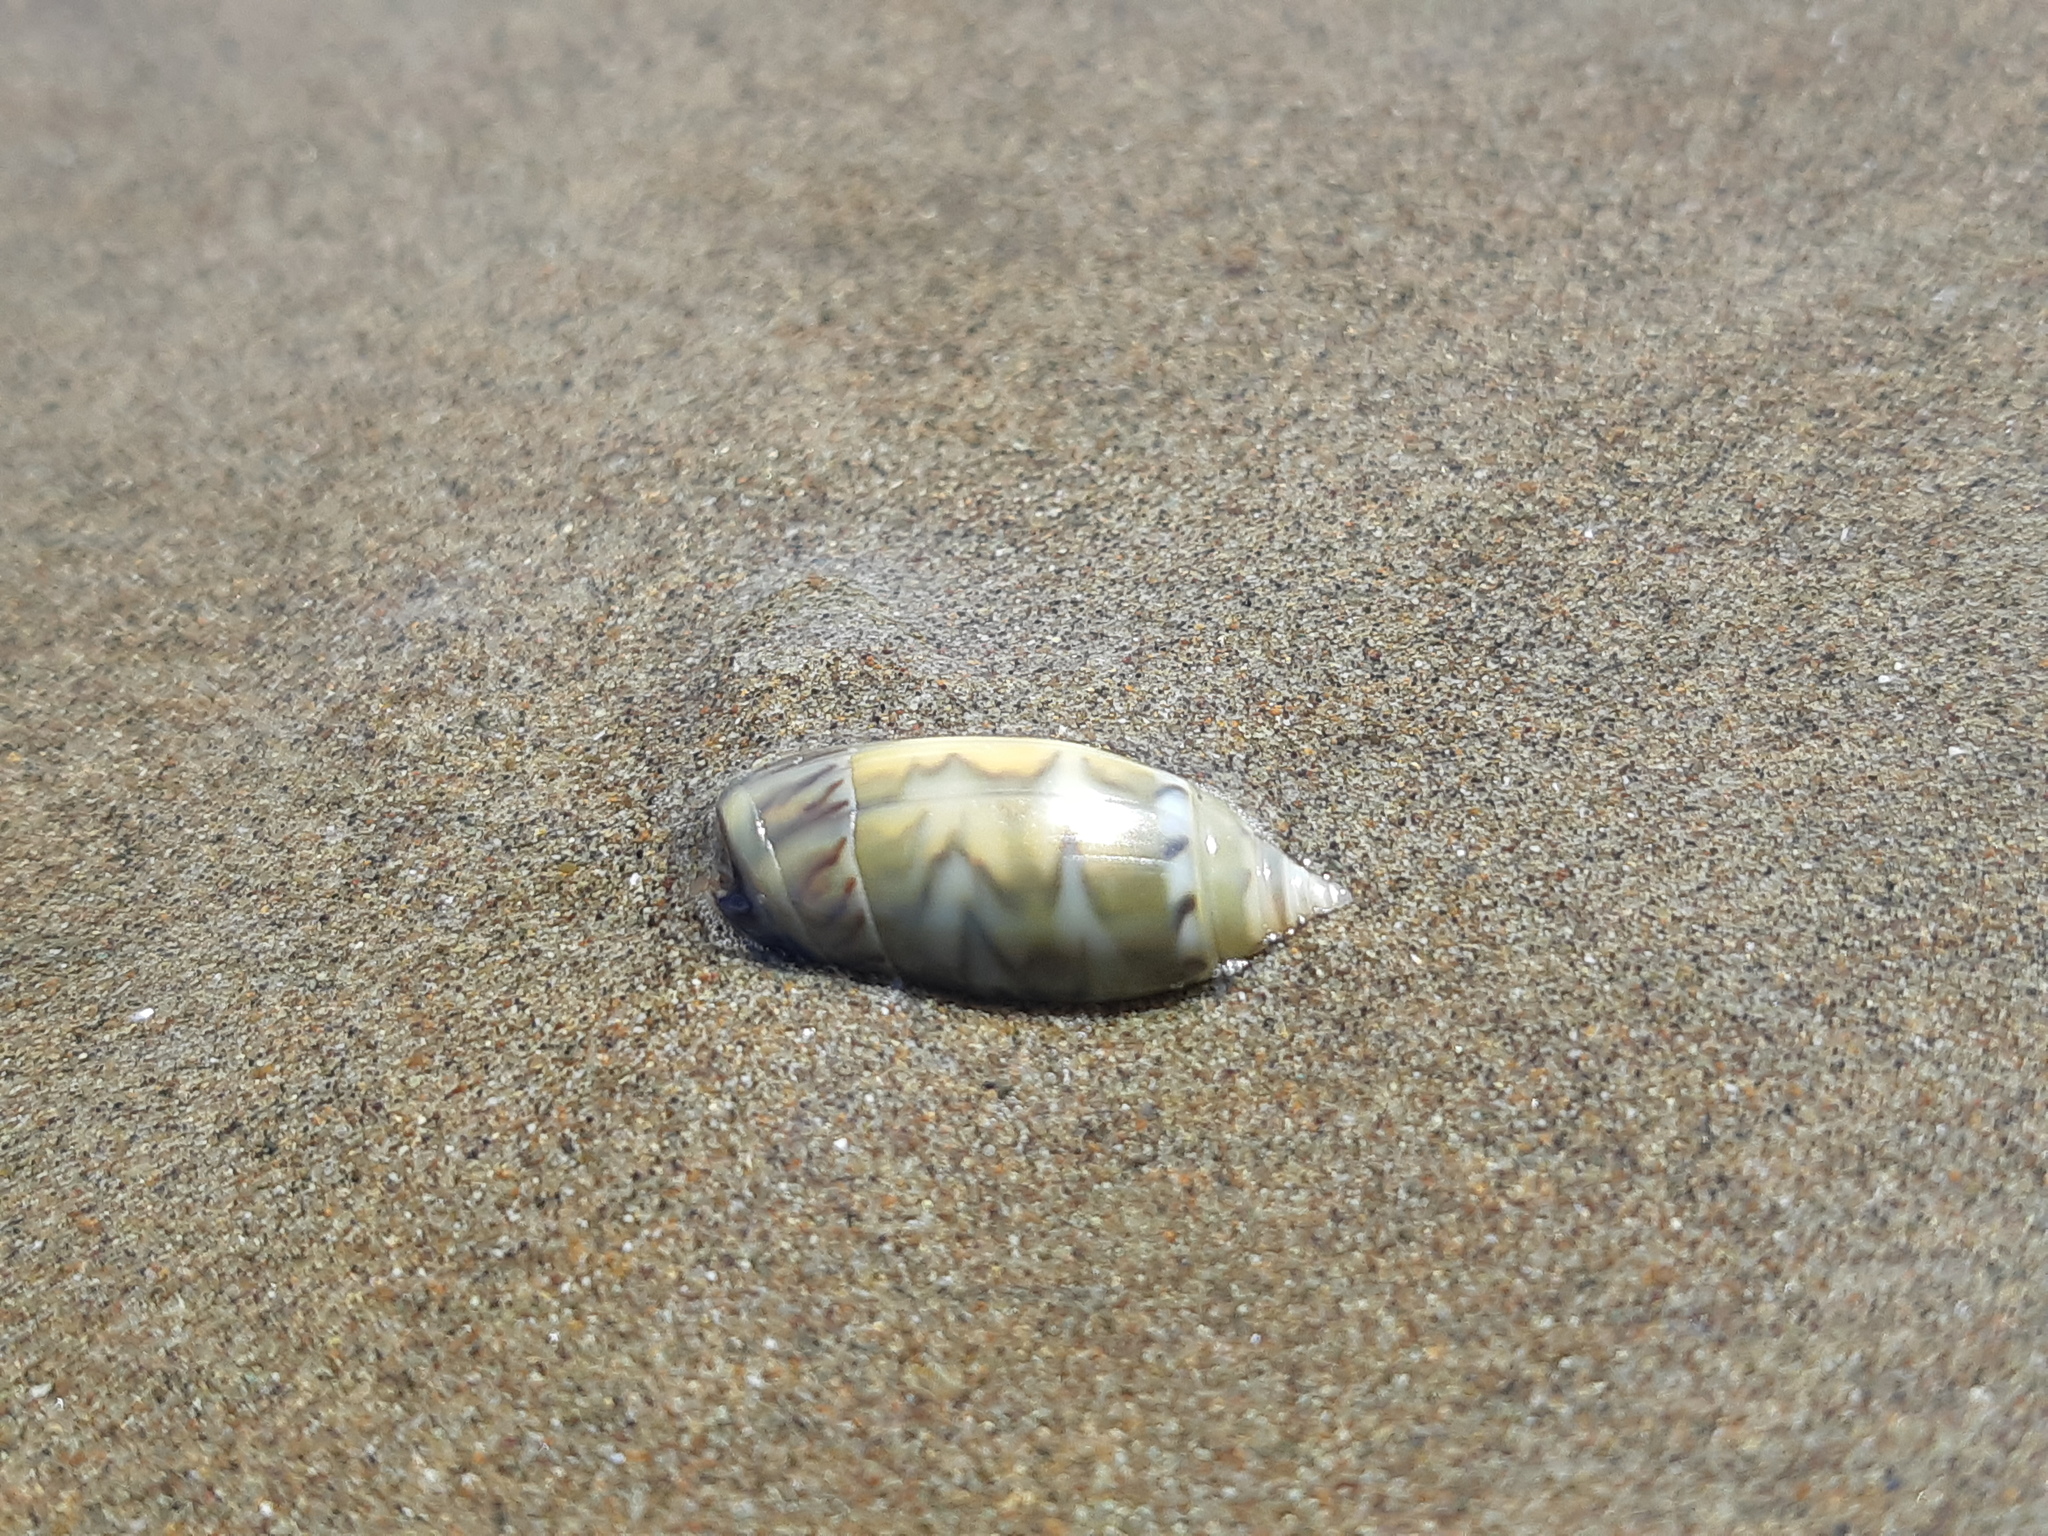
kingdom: Animalia
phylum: Mollusca
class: Gastropoda
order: Neogastropoda
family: Olividae
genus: Oliva
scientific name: Oliva undatella
